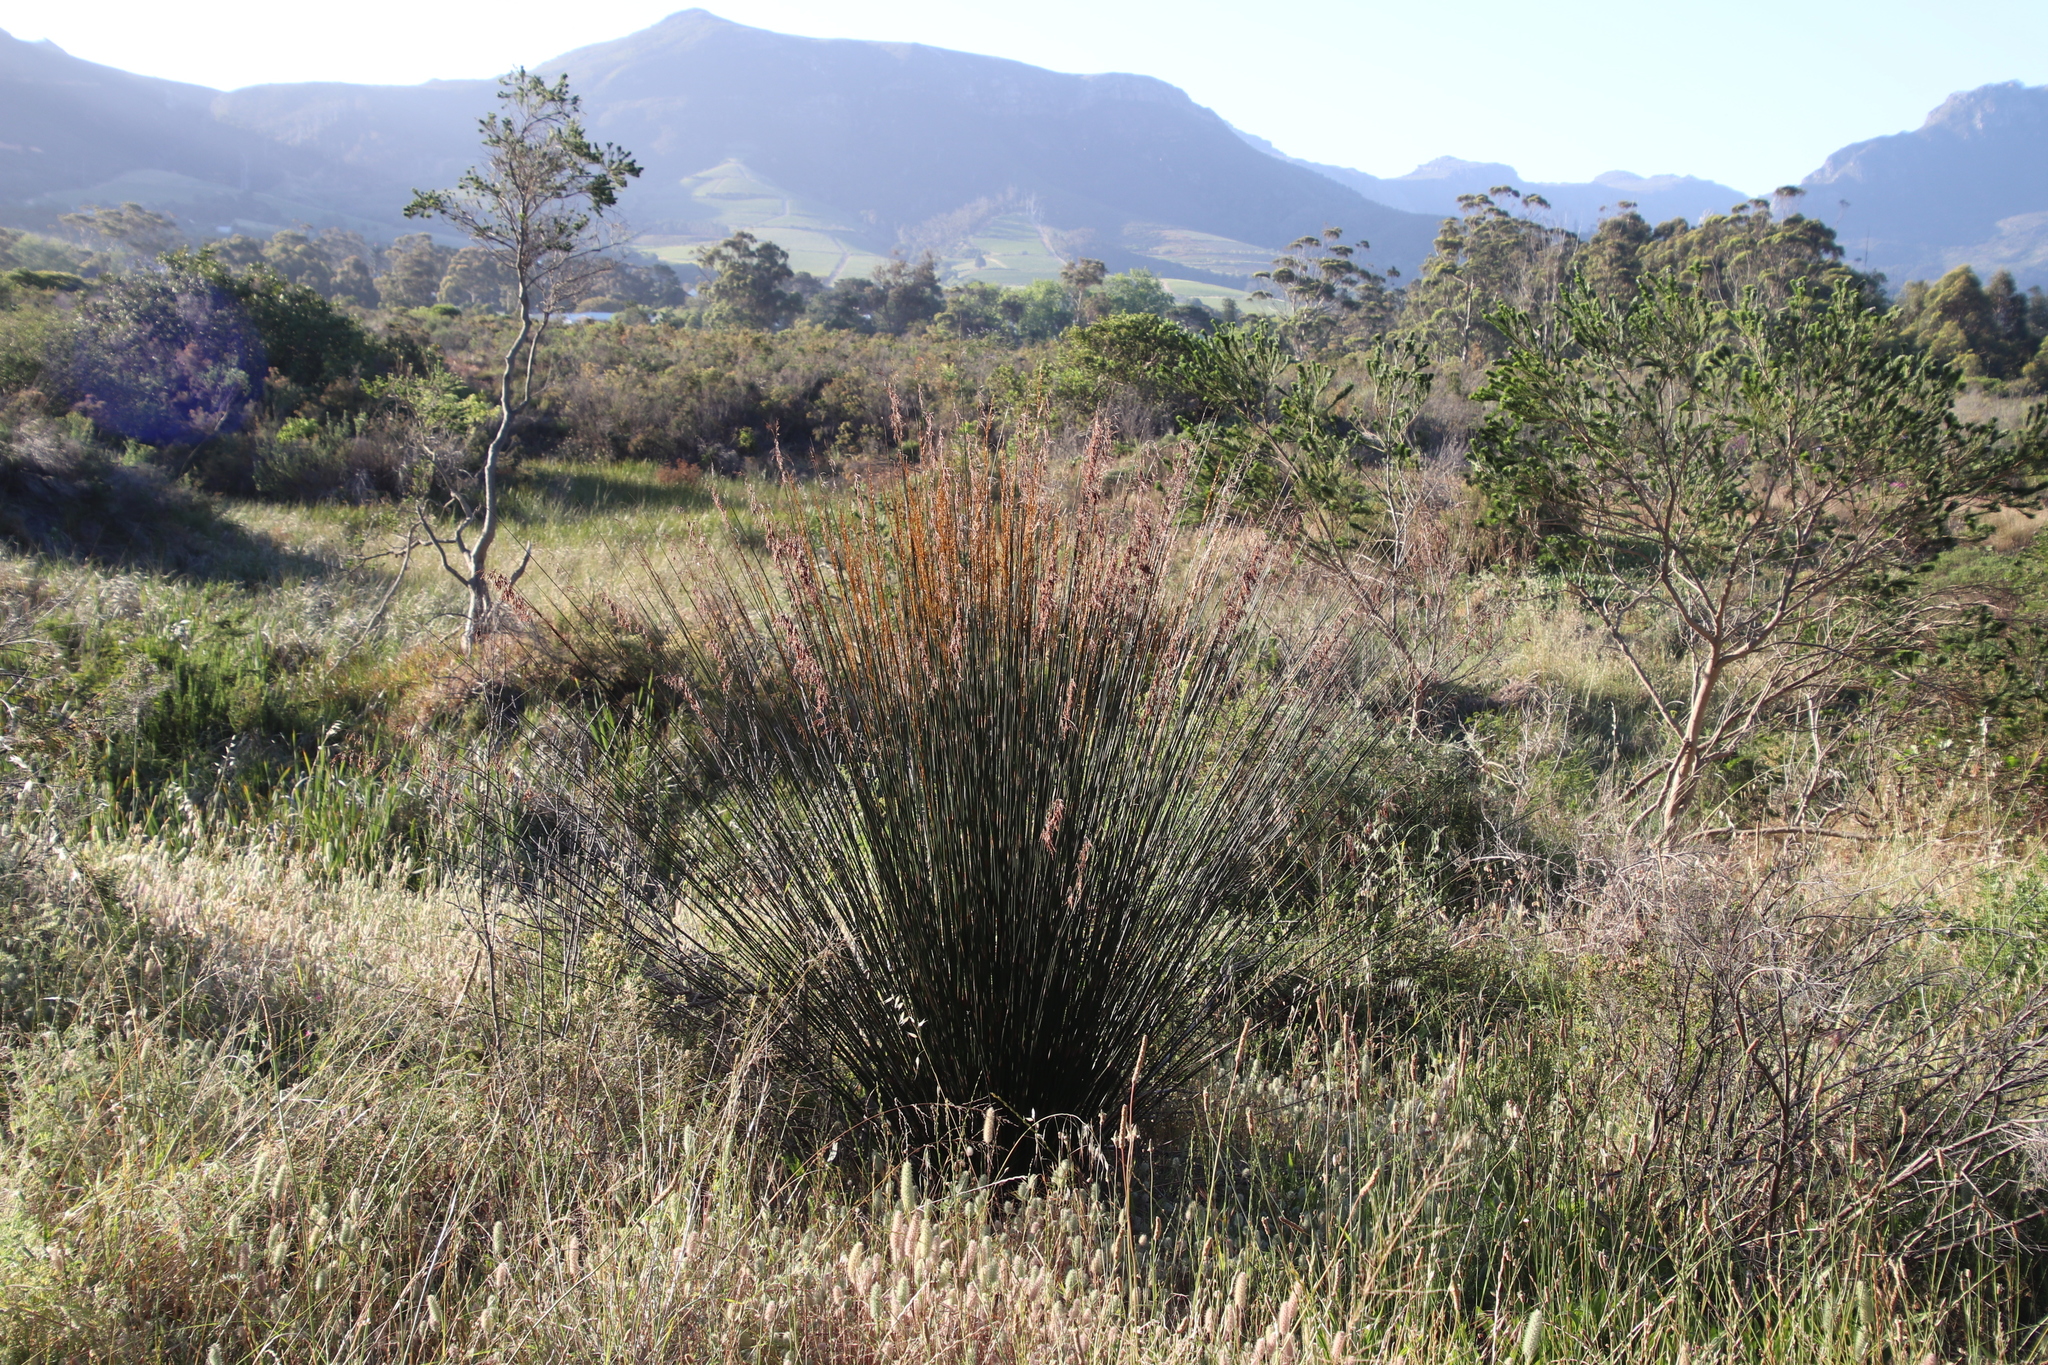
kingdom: Plantae
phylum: Tracheophyta
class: Liliopsida
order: Poales
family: Restionaceae
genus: Thamnochortus
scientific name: Thamnochortus insignis
